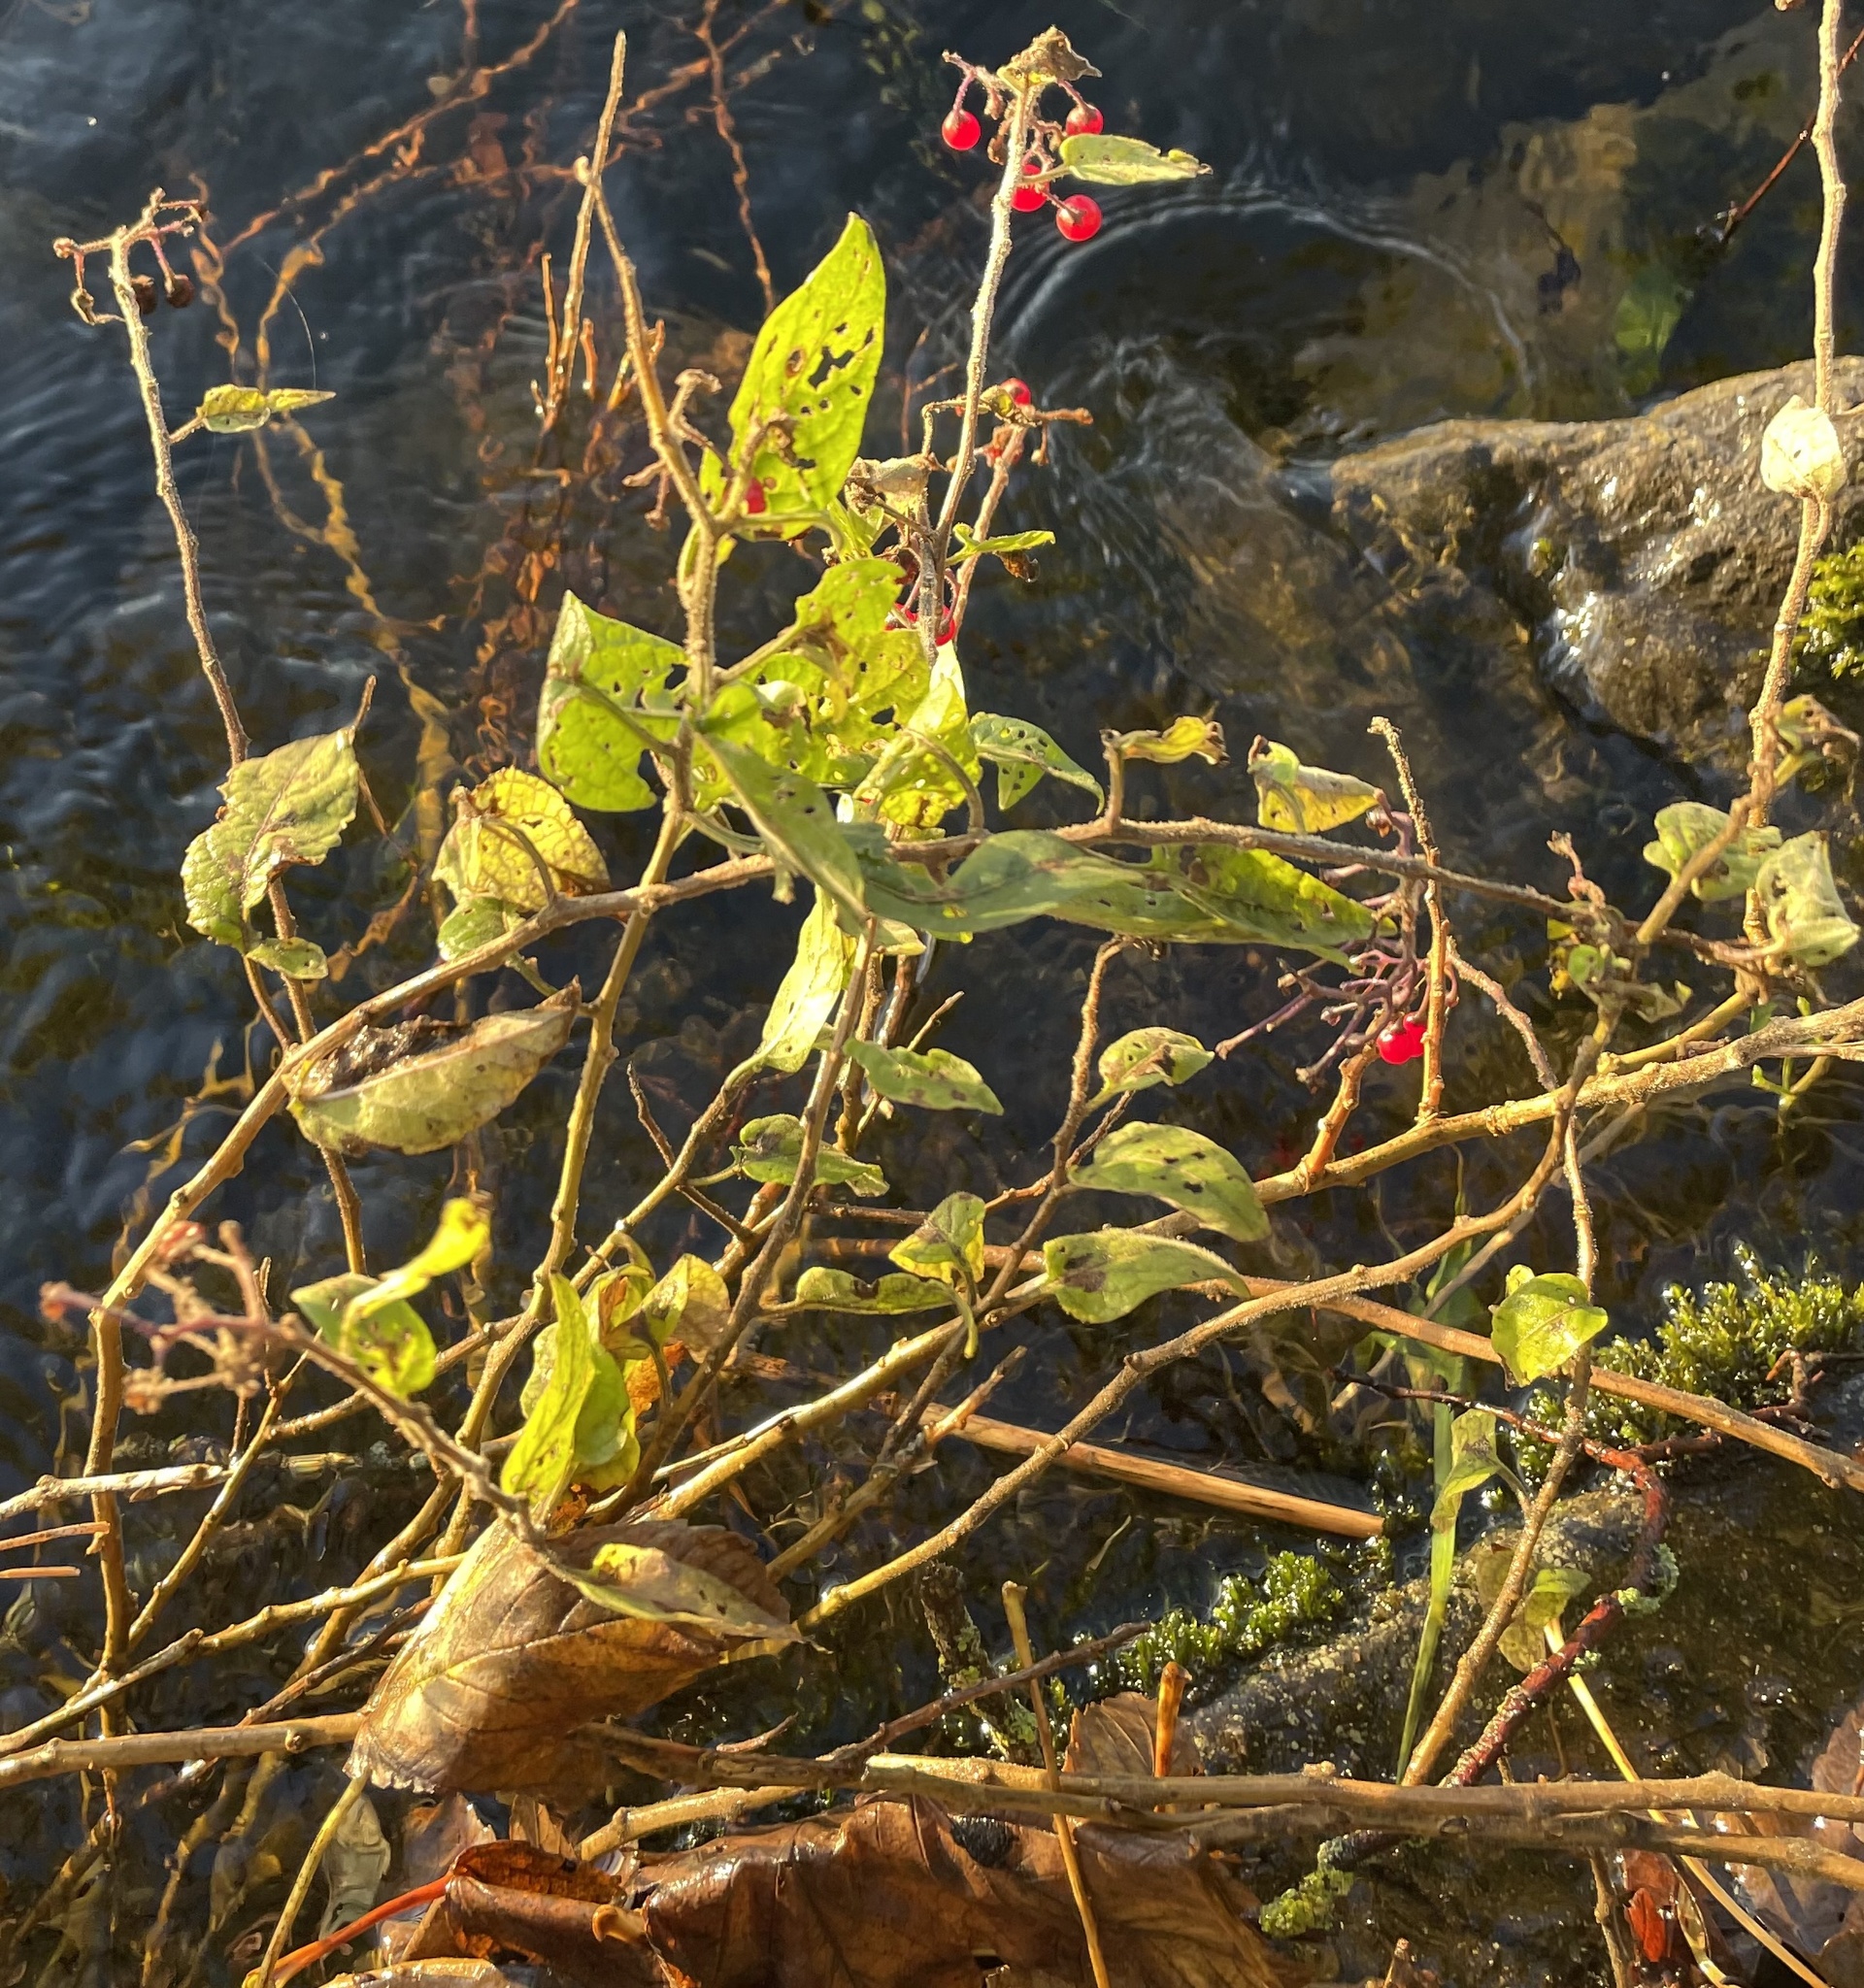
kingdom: Plantae
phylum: Tracheophyta
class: Magnoliopsida
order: Solanales
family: Solanaceae
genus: Solanum
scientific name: Solanum dulcamara
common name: Climbing nightshade
